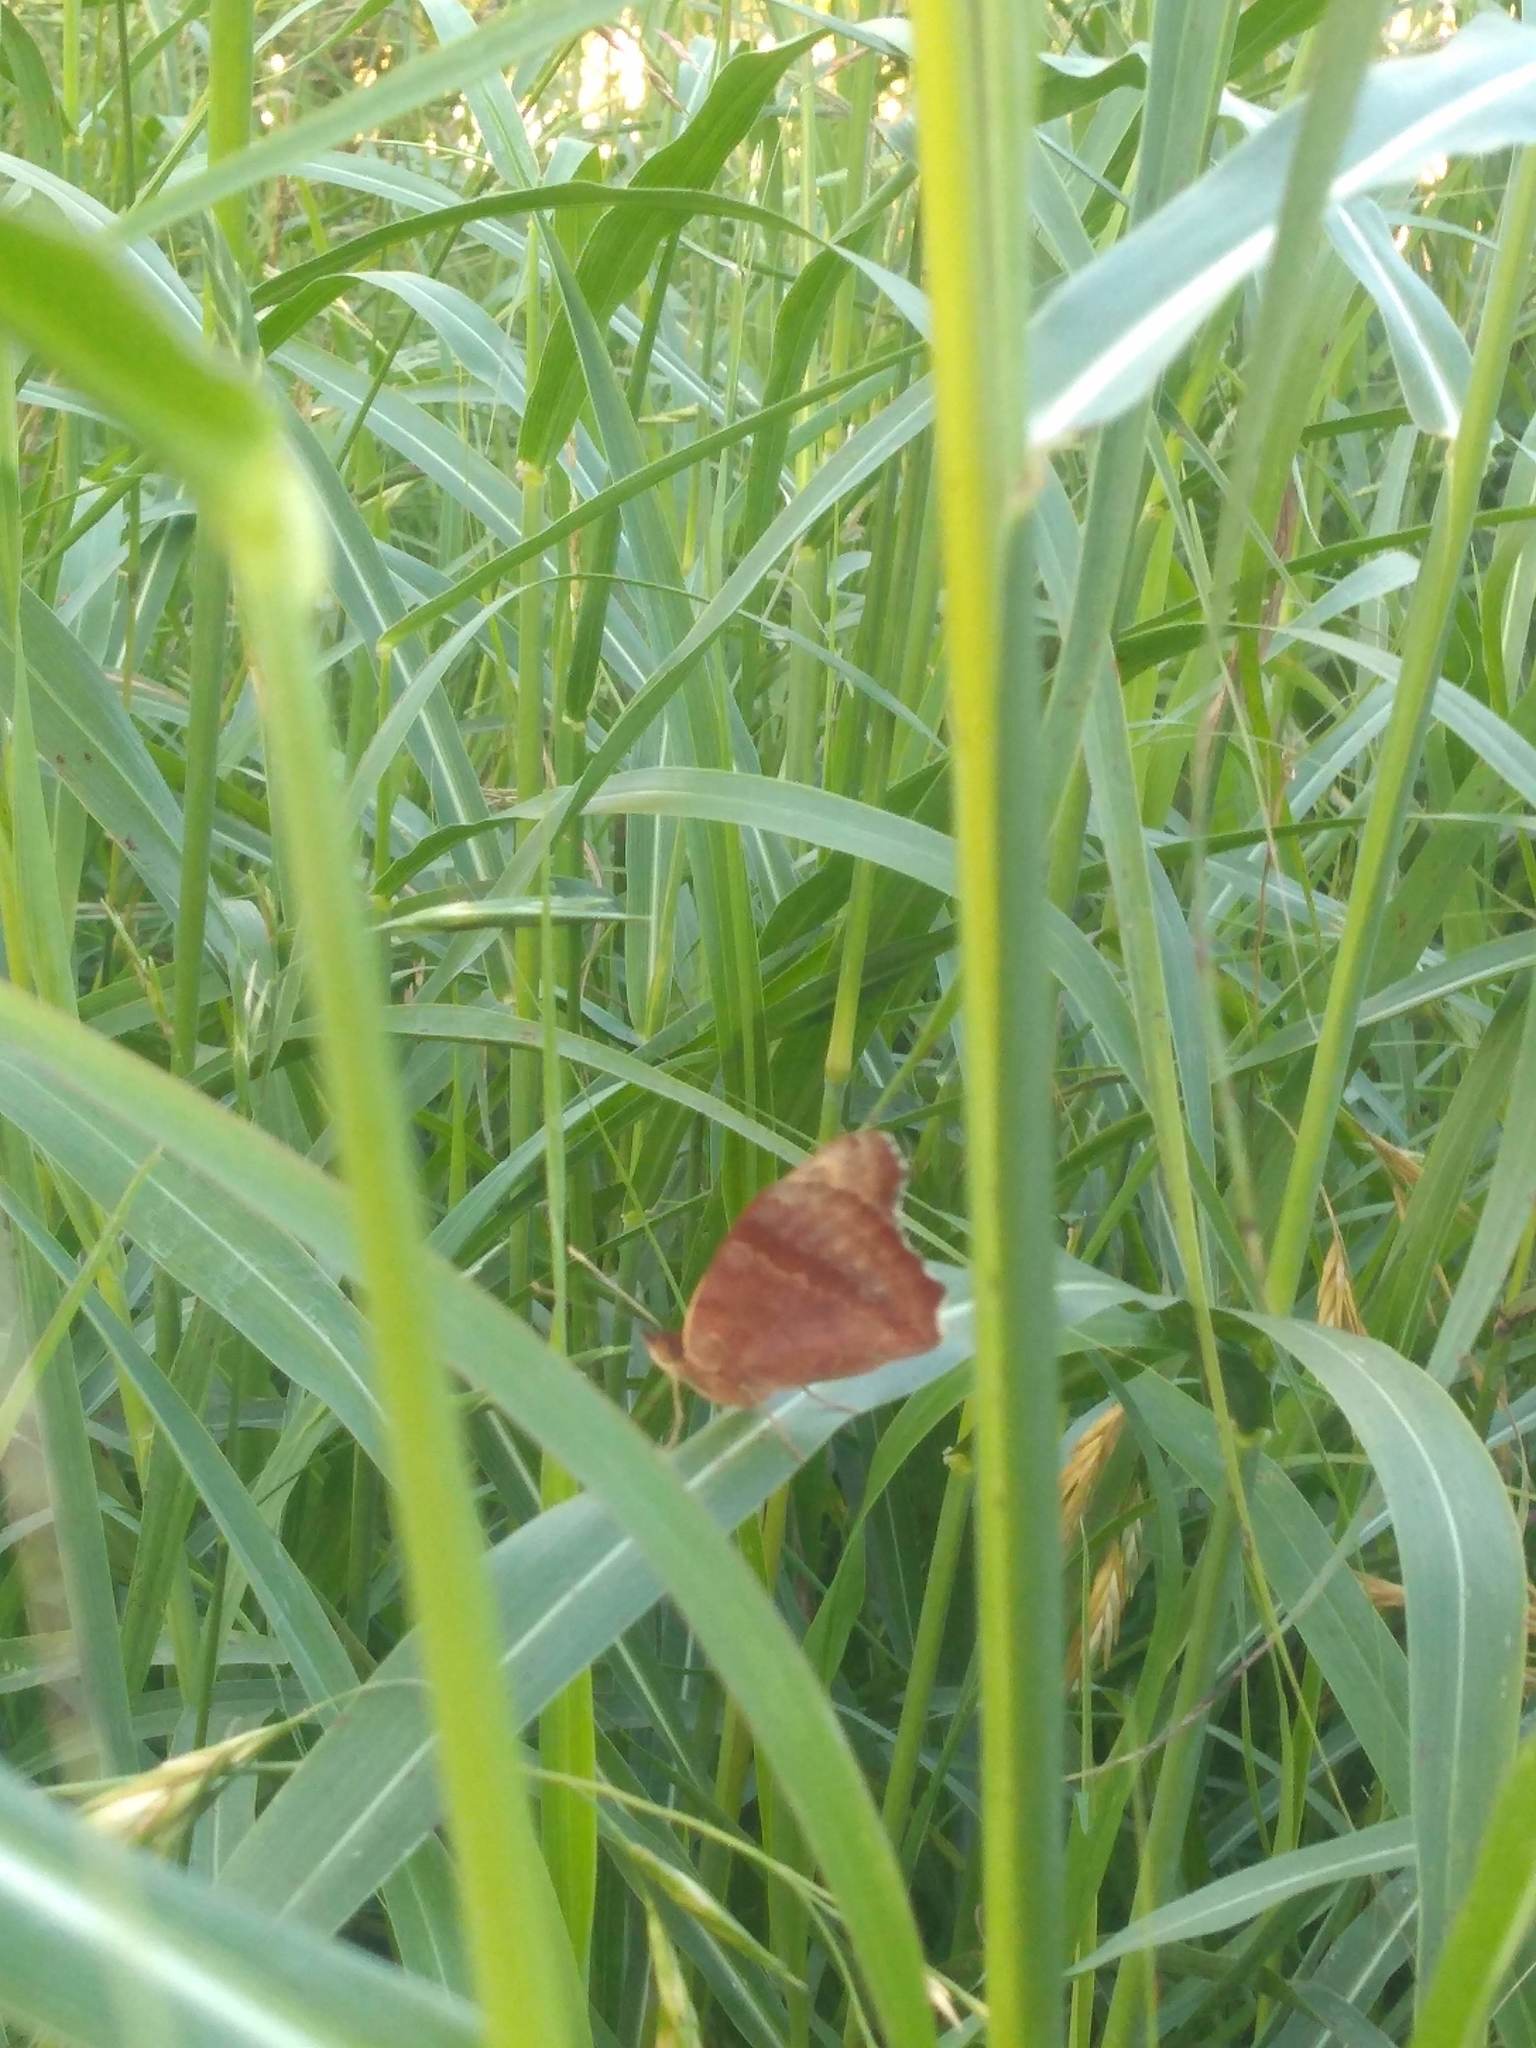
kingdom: Animalia
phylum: Arthropoda
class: Insecta
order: Lepidoptera
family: Nymphalidae
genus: Junonia
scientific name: Junonia lavinia
